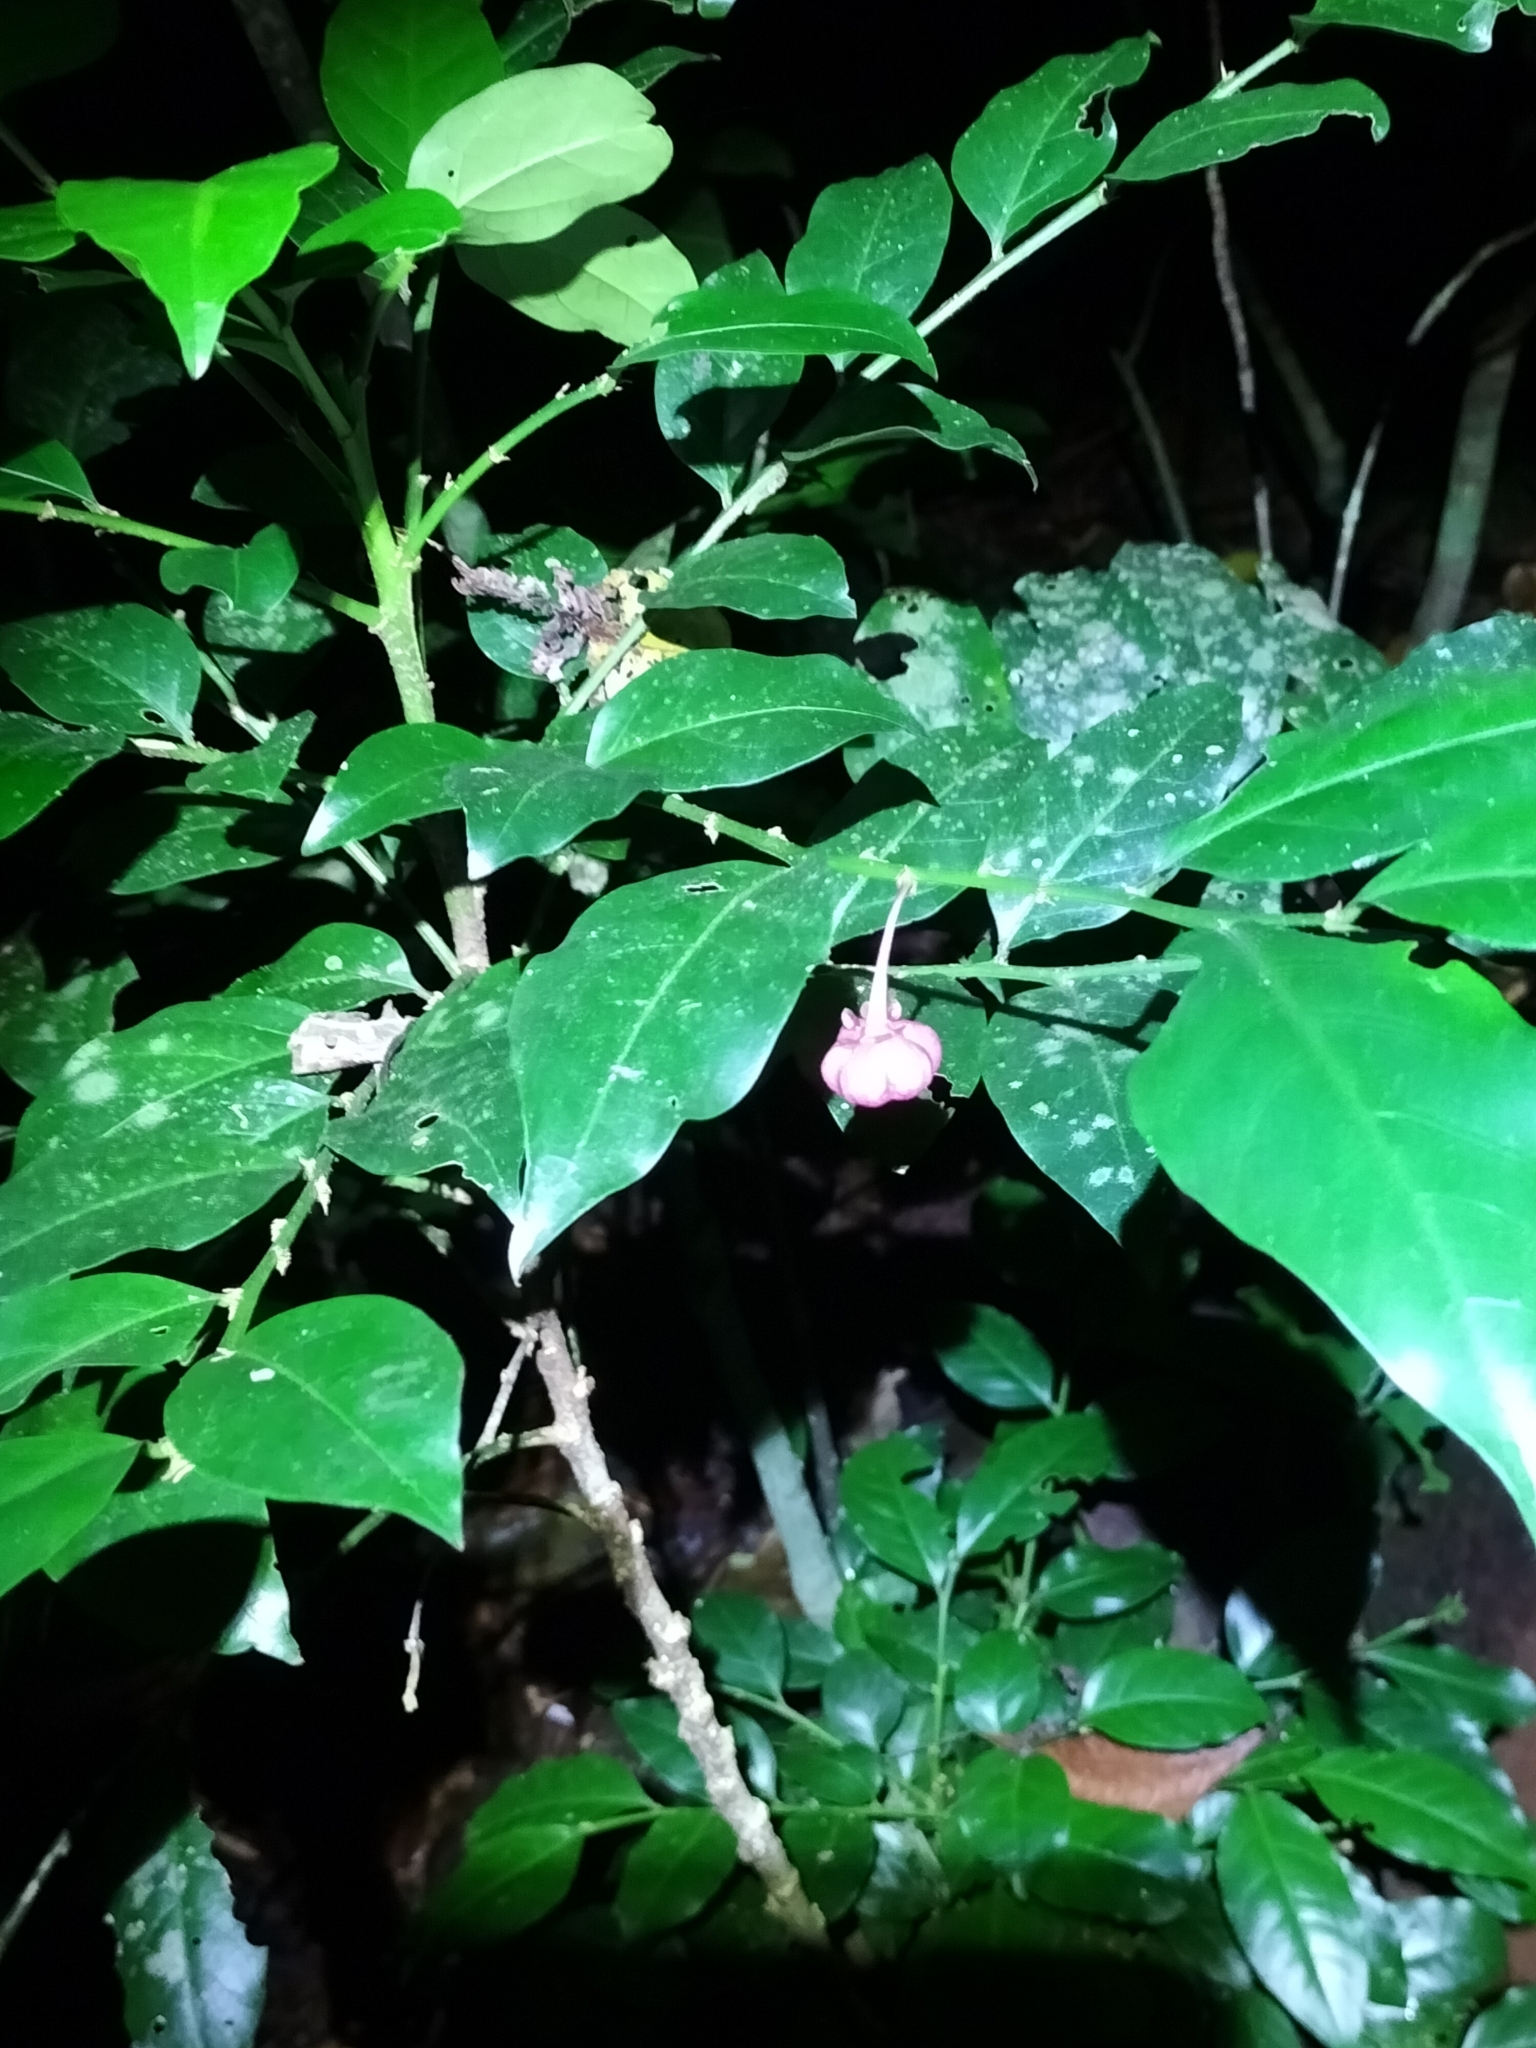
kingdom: Plantae
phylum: Tracheophyta
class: Magnoliopsida
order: Malpighiales
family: Phyllanthaceae
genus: Breynia
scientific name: Breynia macrantha
